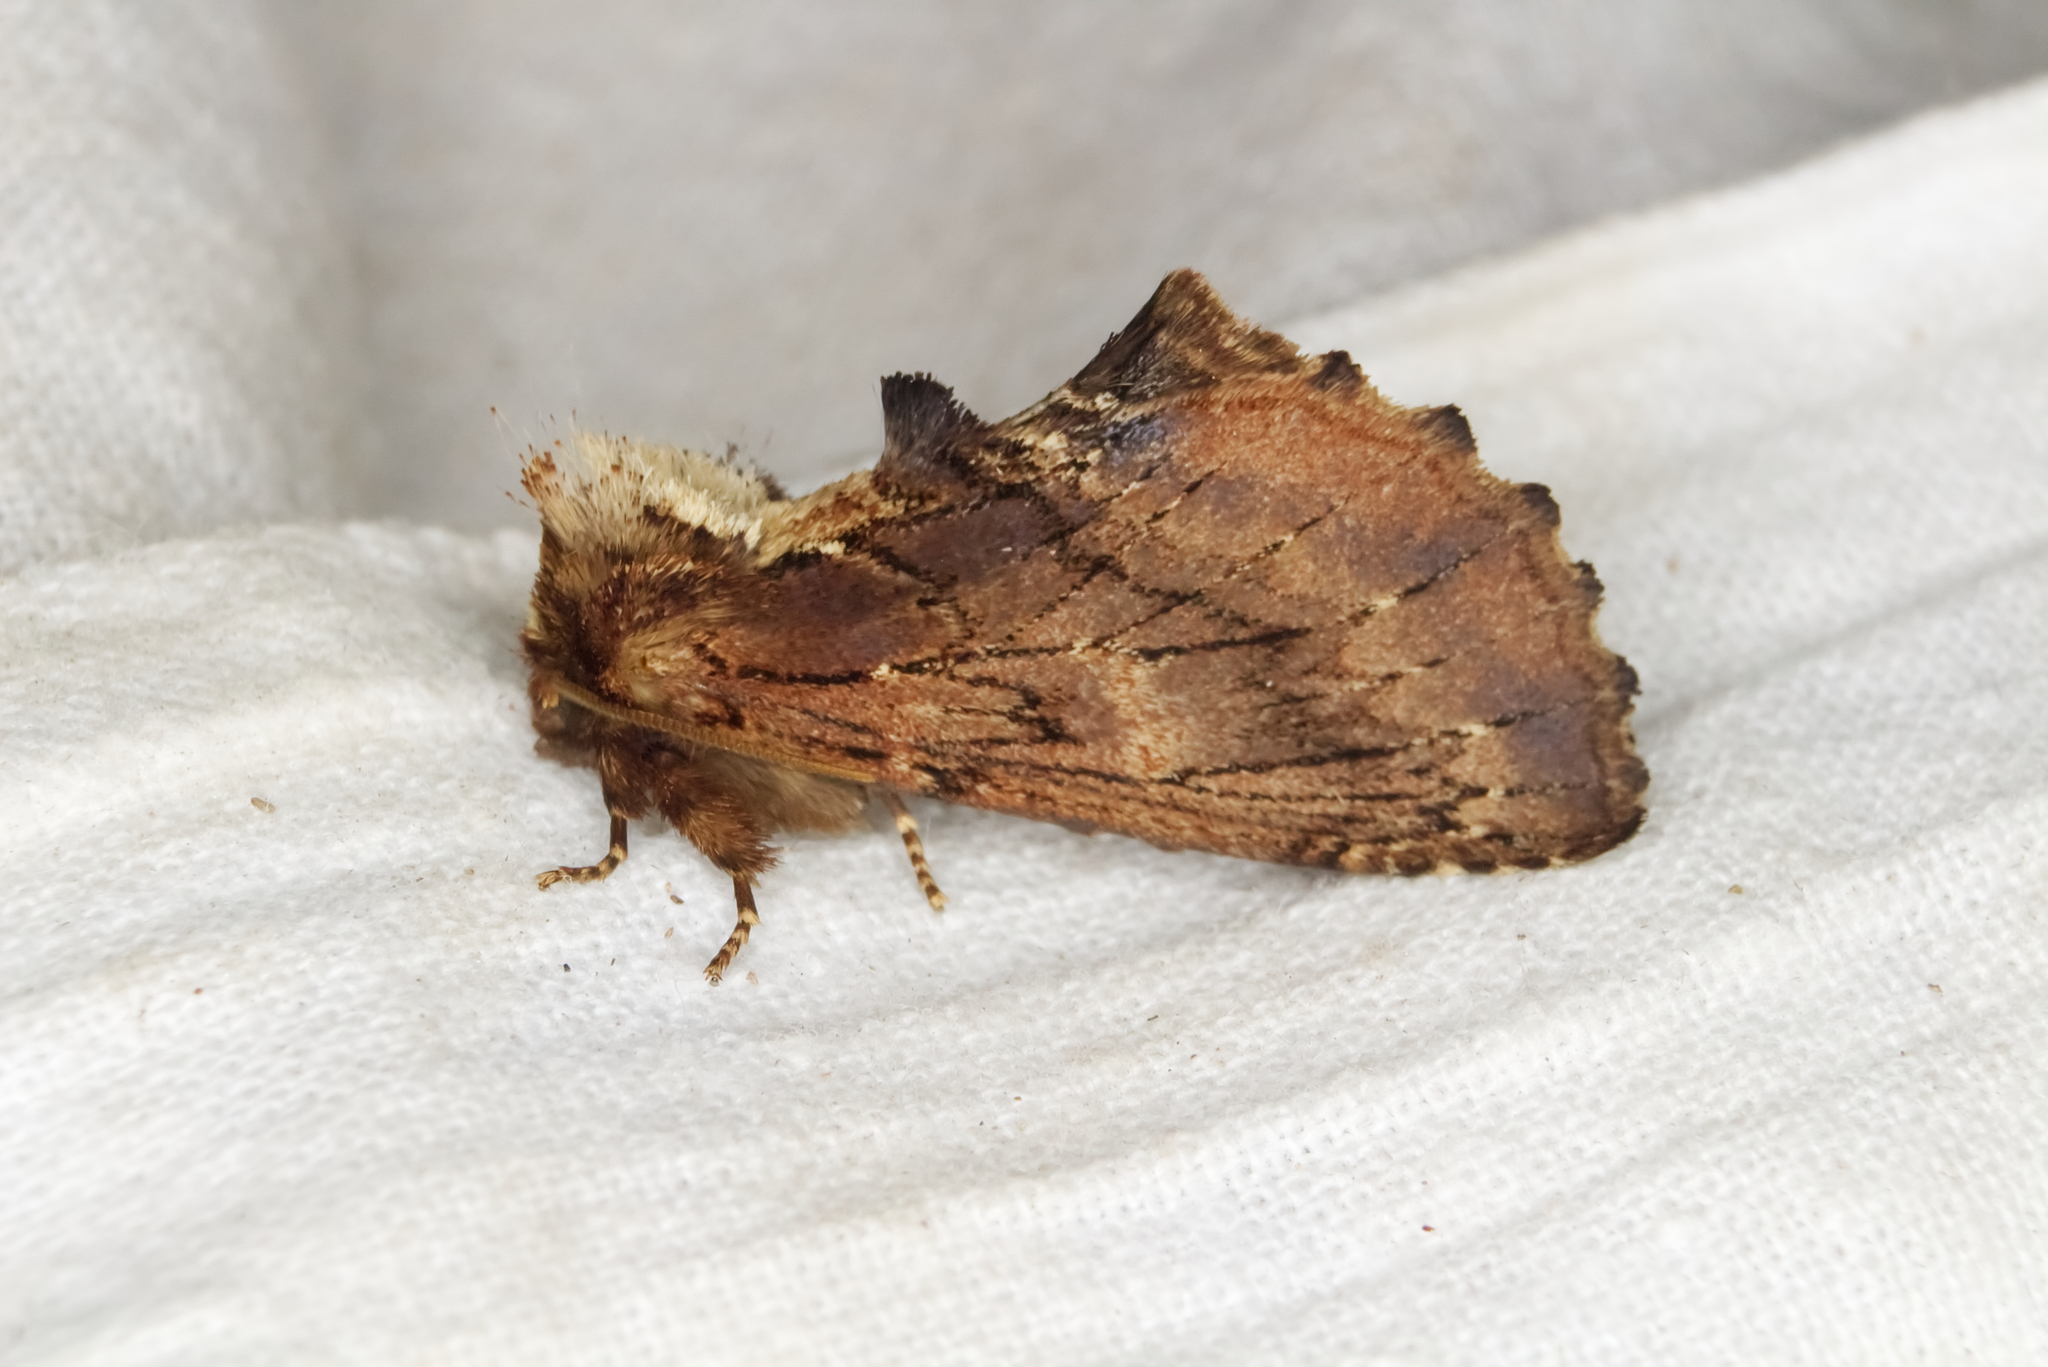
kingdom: Animalia
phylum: Arthropoda
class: Insecta
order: Lepidoptera
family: Notodontidae
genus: Ptilodon
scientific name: Ptilodon capucina
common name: Coxcomb prominent
